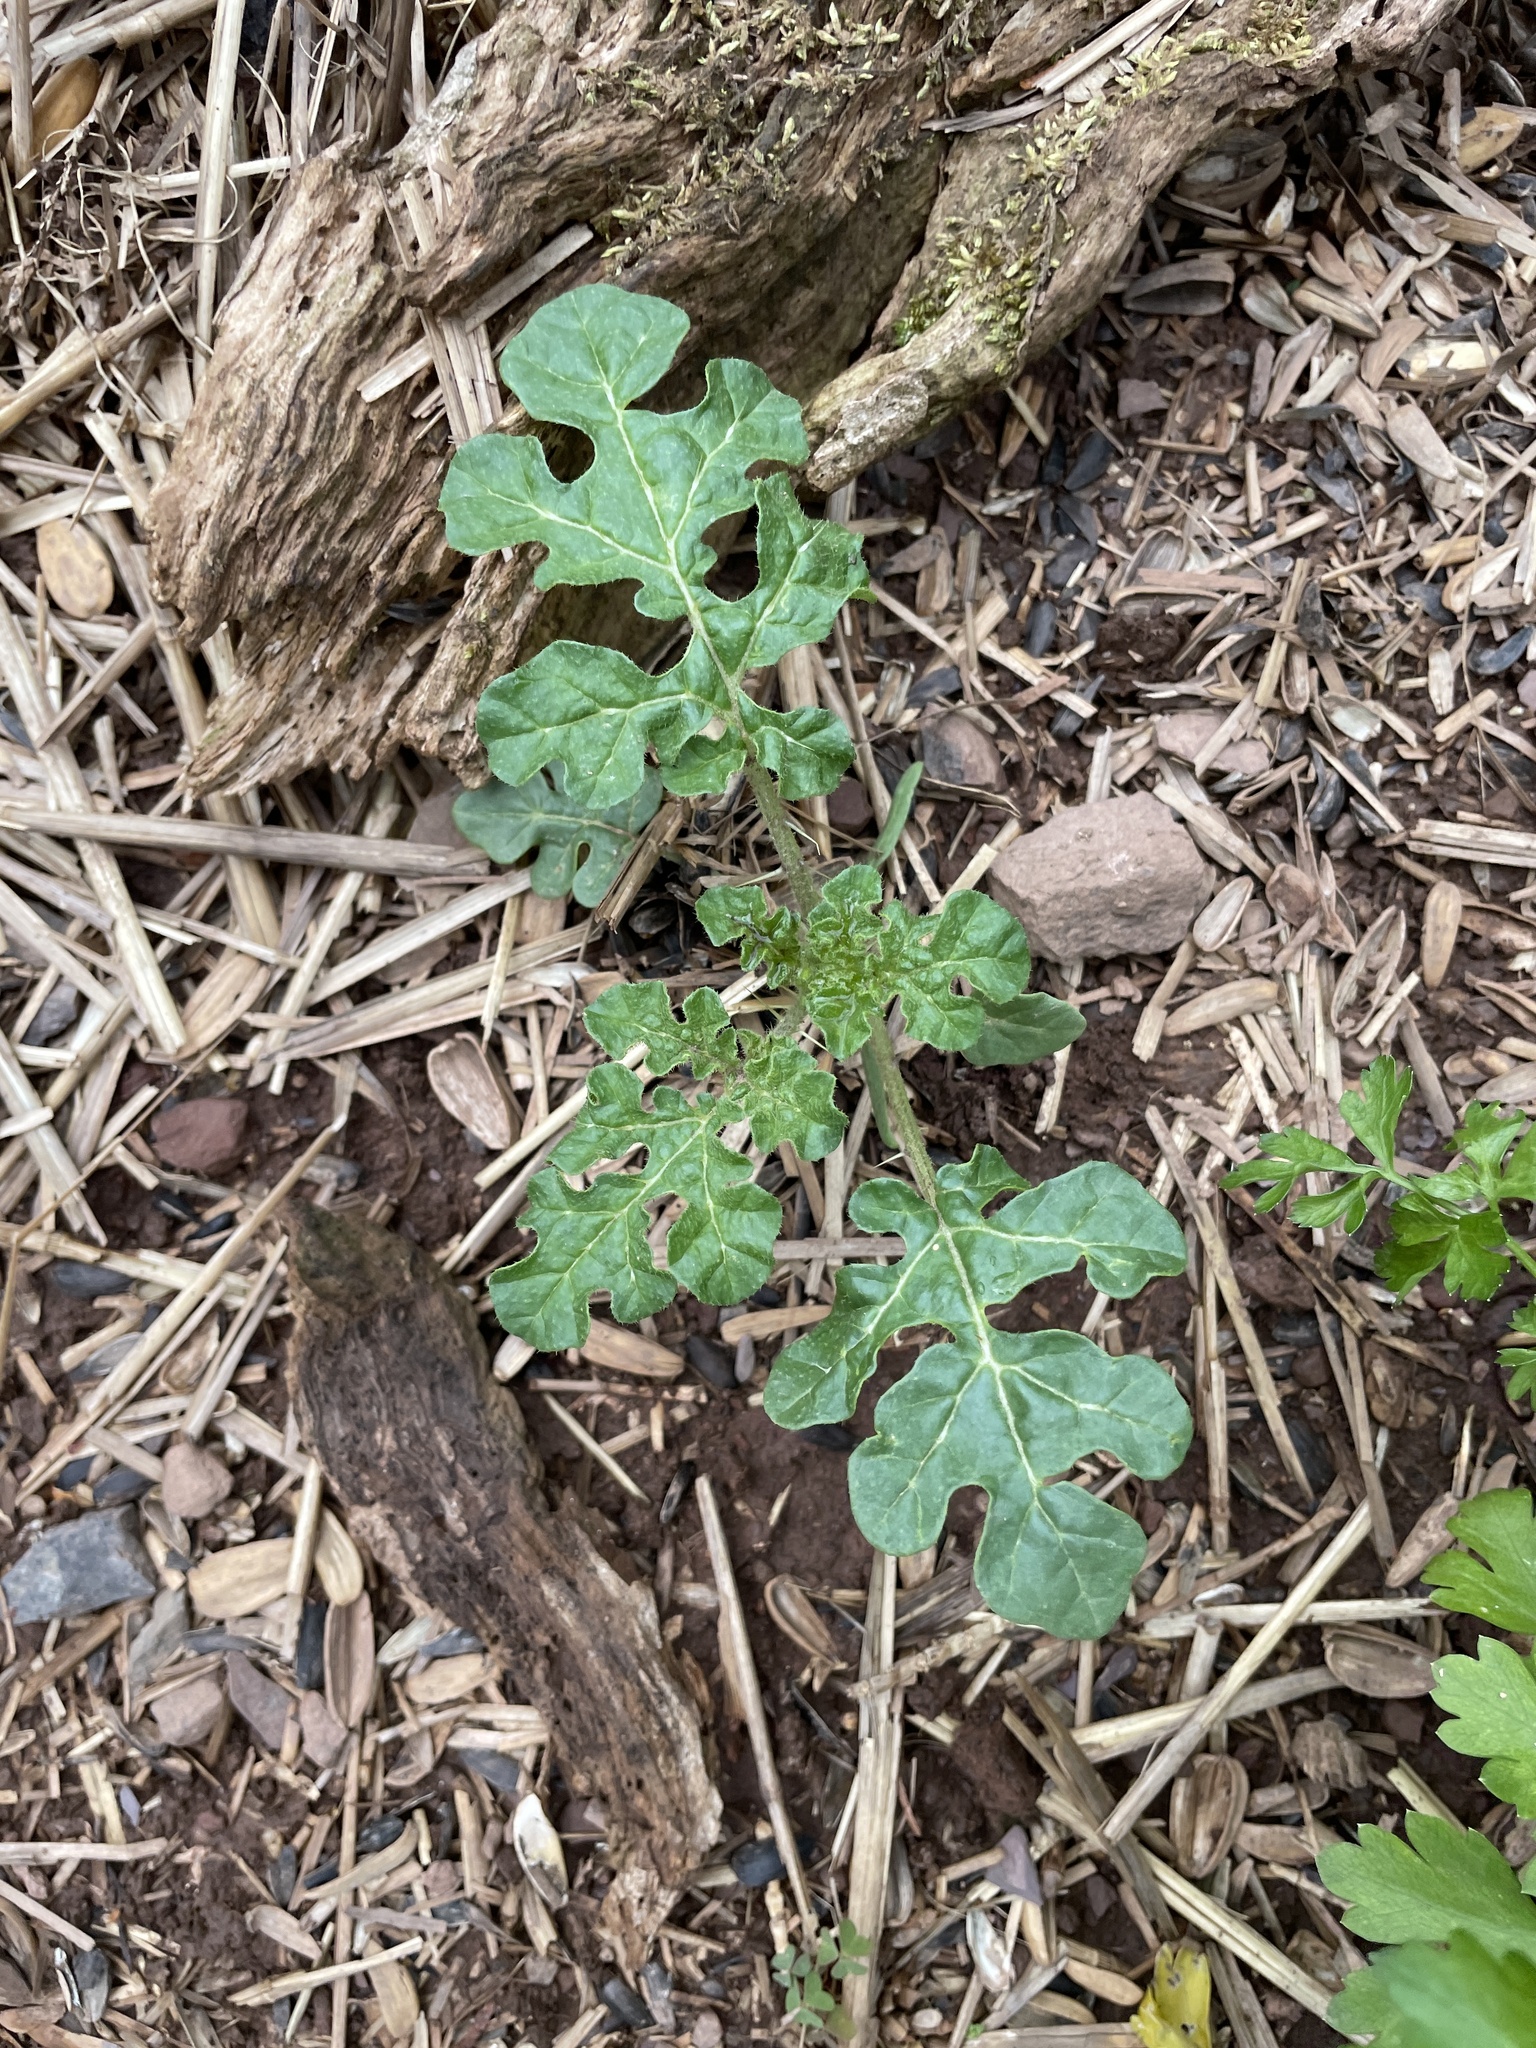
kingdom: Plantae
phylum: Tracheophyta
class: Magnoliopsida
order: Solanales
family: Solanaceae
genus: Solanum
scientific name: Solanum angustifolium
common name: Buffalobur nightshade
